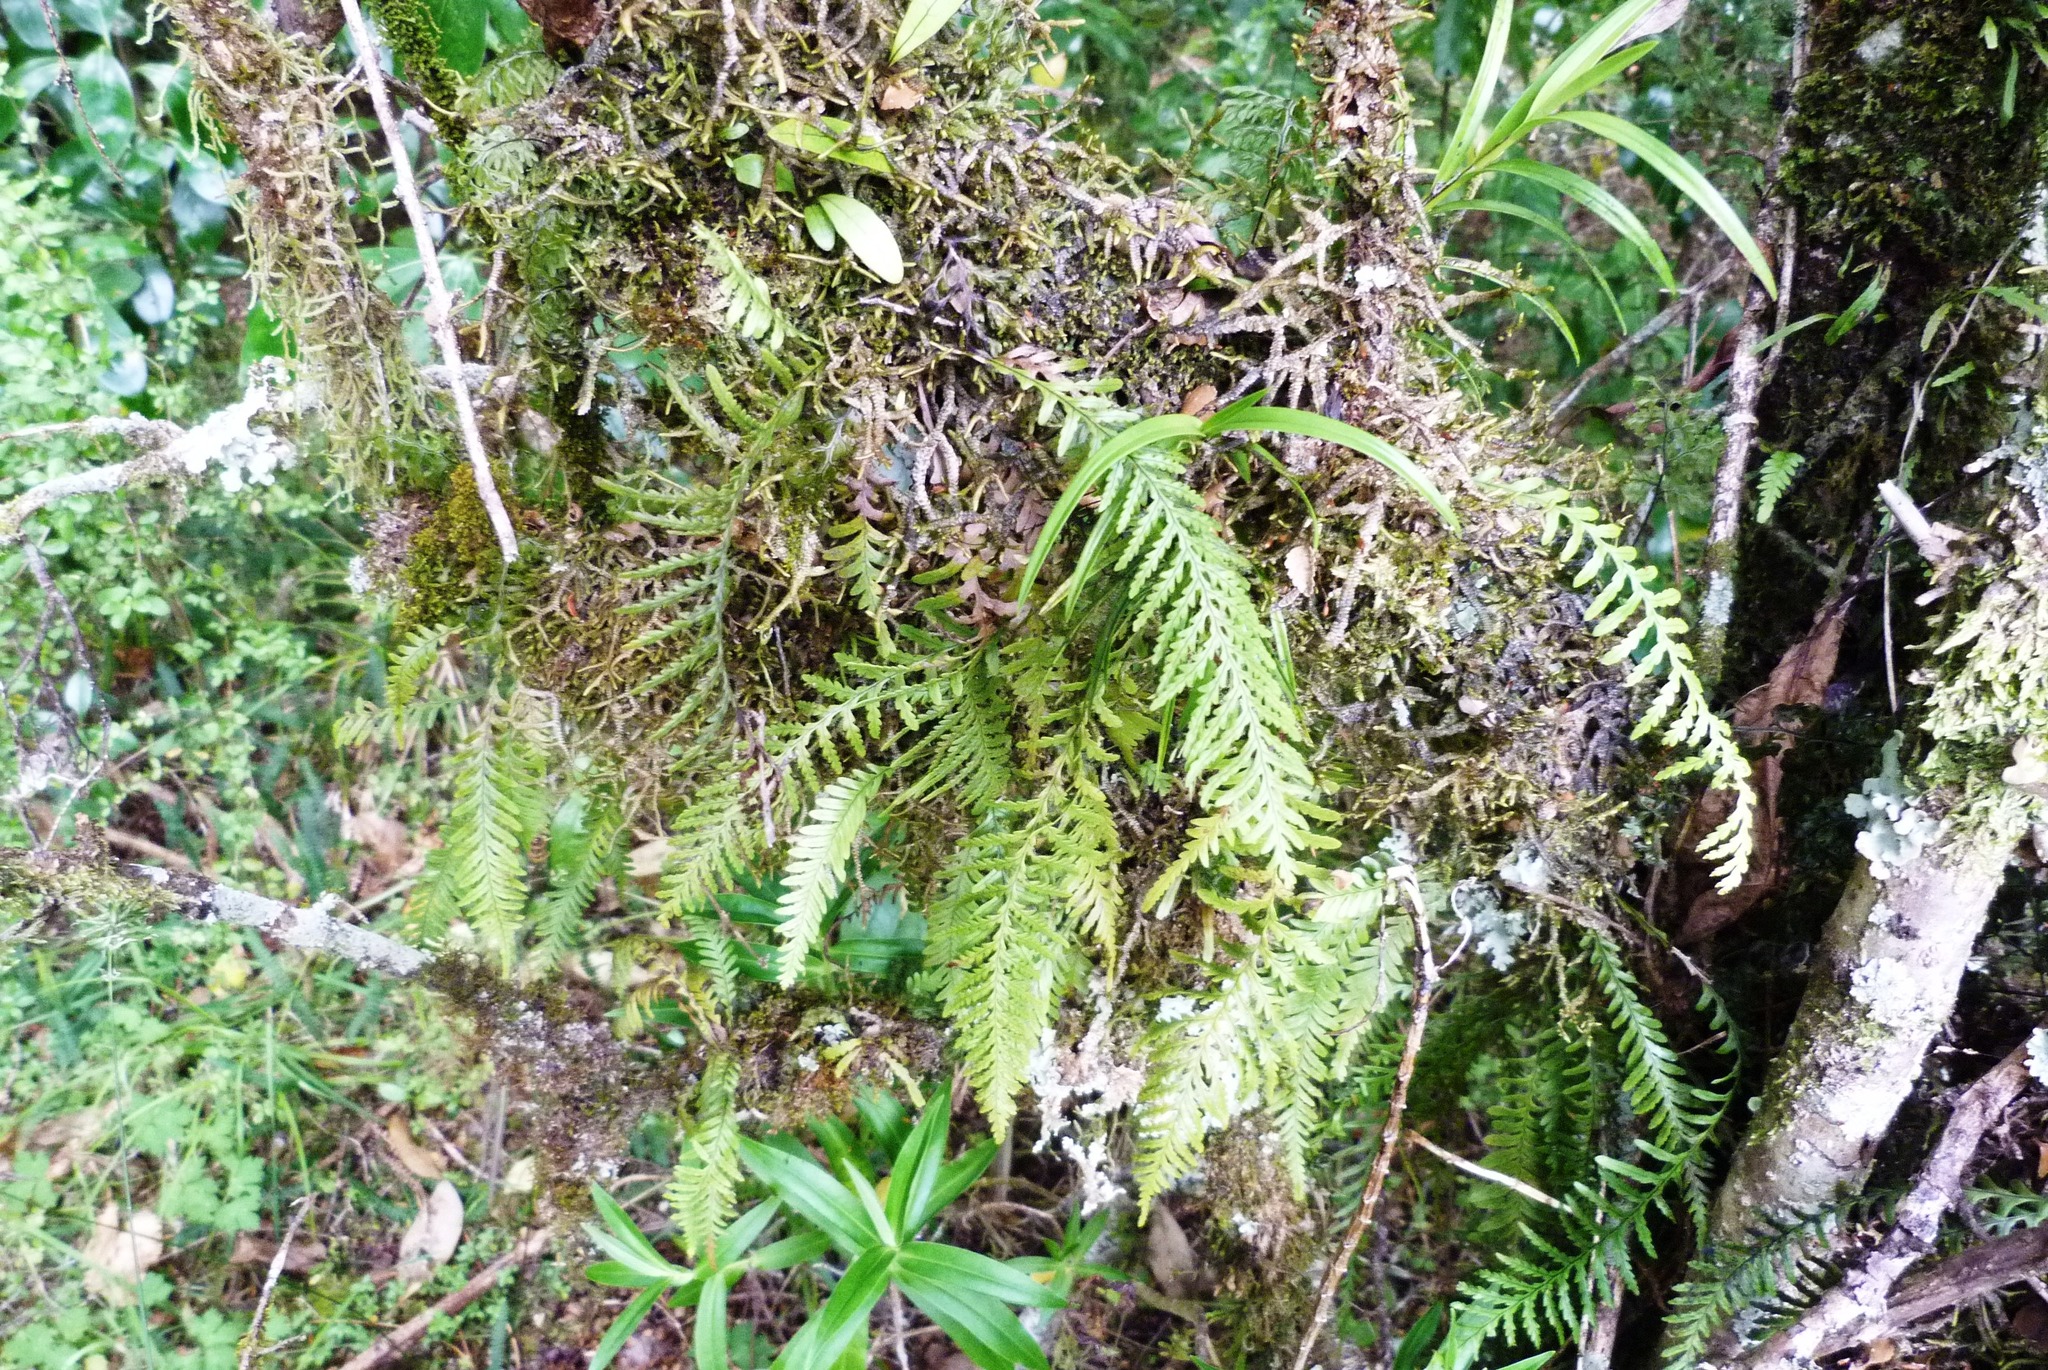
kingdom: Plantae
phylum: Tracheophyta
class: Polypodiopsida
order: Polypodiales
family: Polypodiaceae
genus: Notogrammitis
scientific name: Notogrammitis heterophylla
